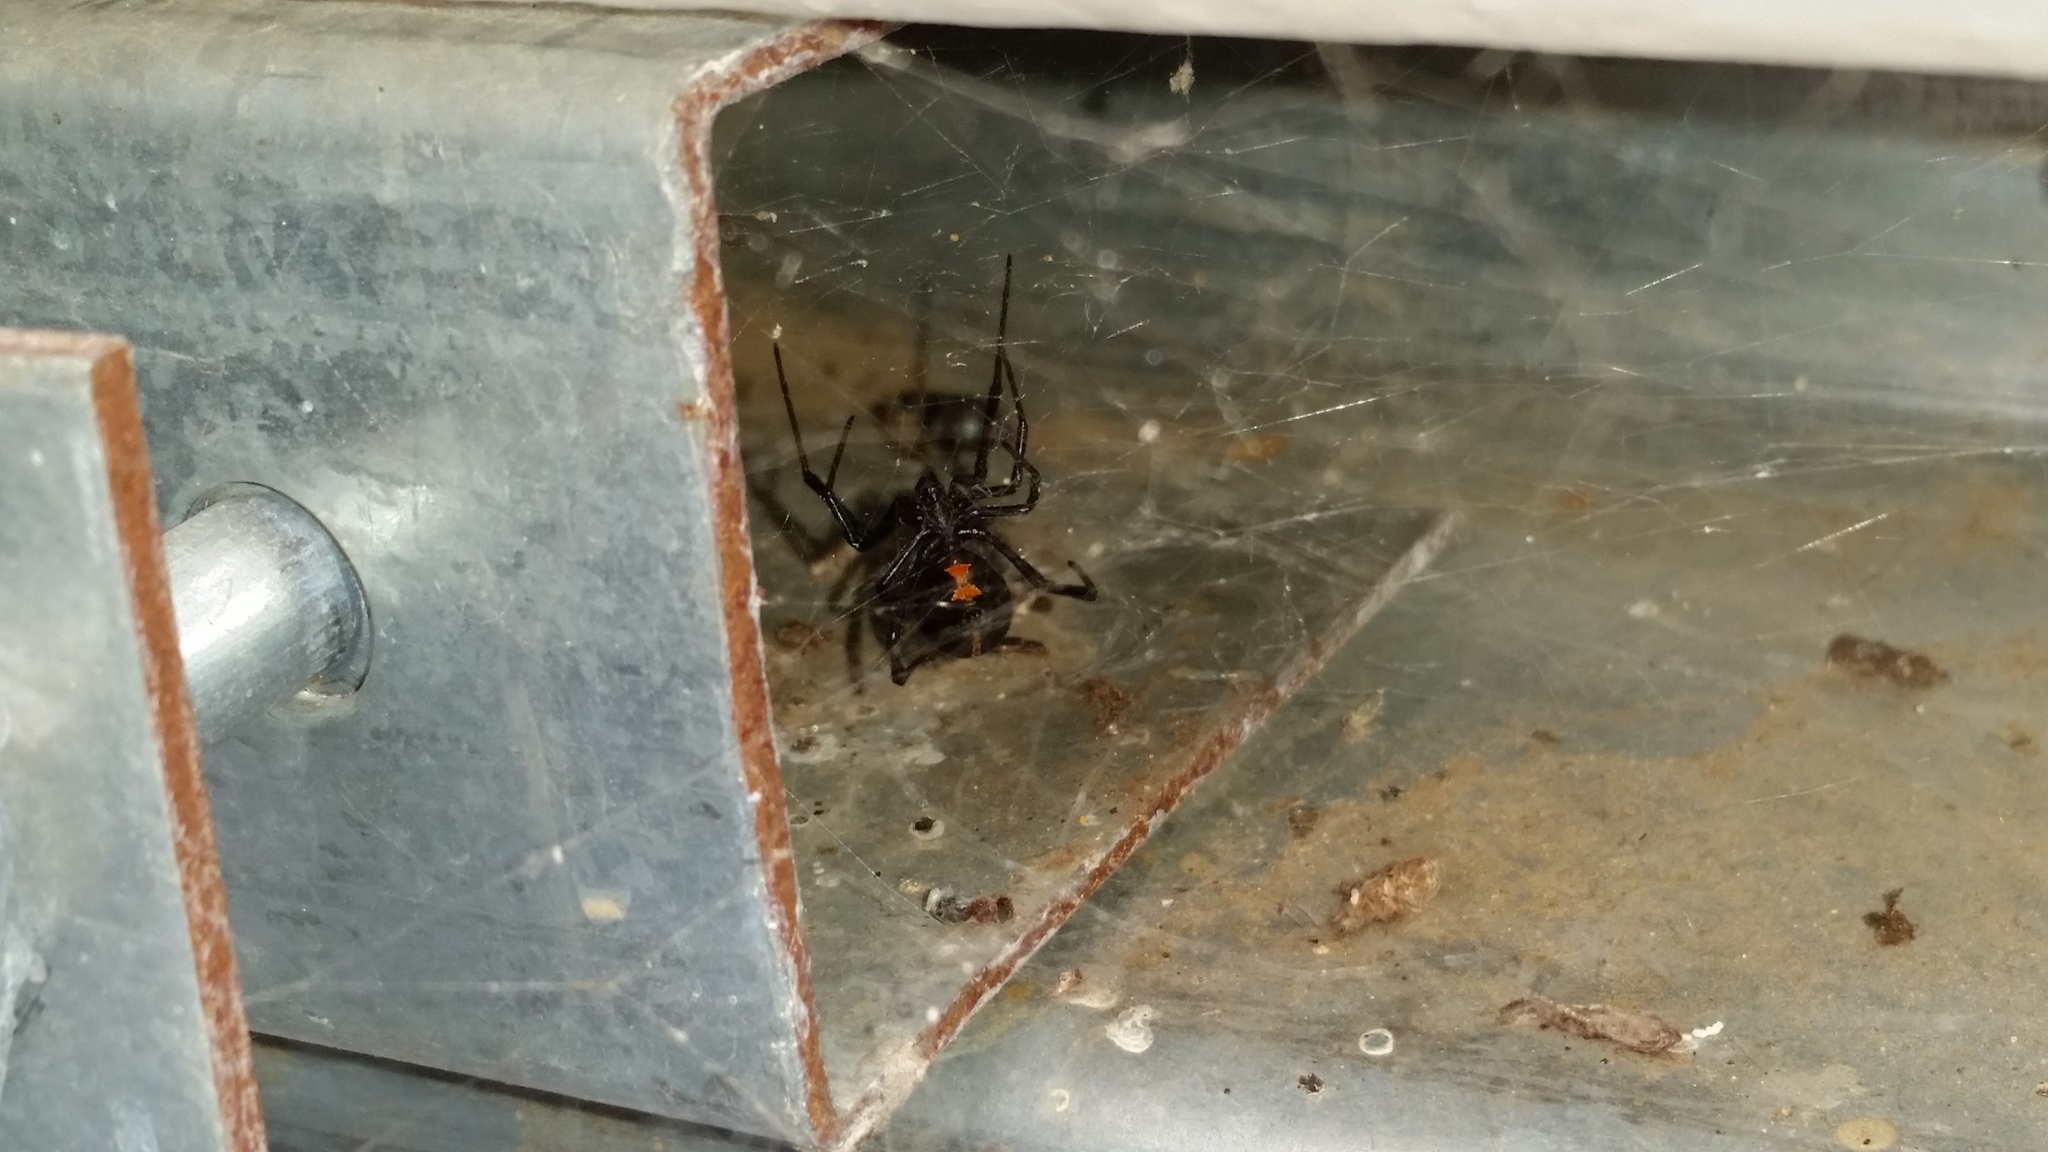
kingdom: Animalia
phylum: Arthropoda
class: Arachnida
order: Araneae
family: Theridiidae
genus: Latrodectus
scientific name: Latrodectus hesperus
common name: Western black widow
